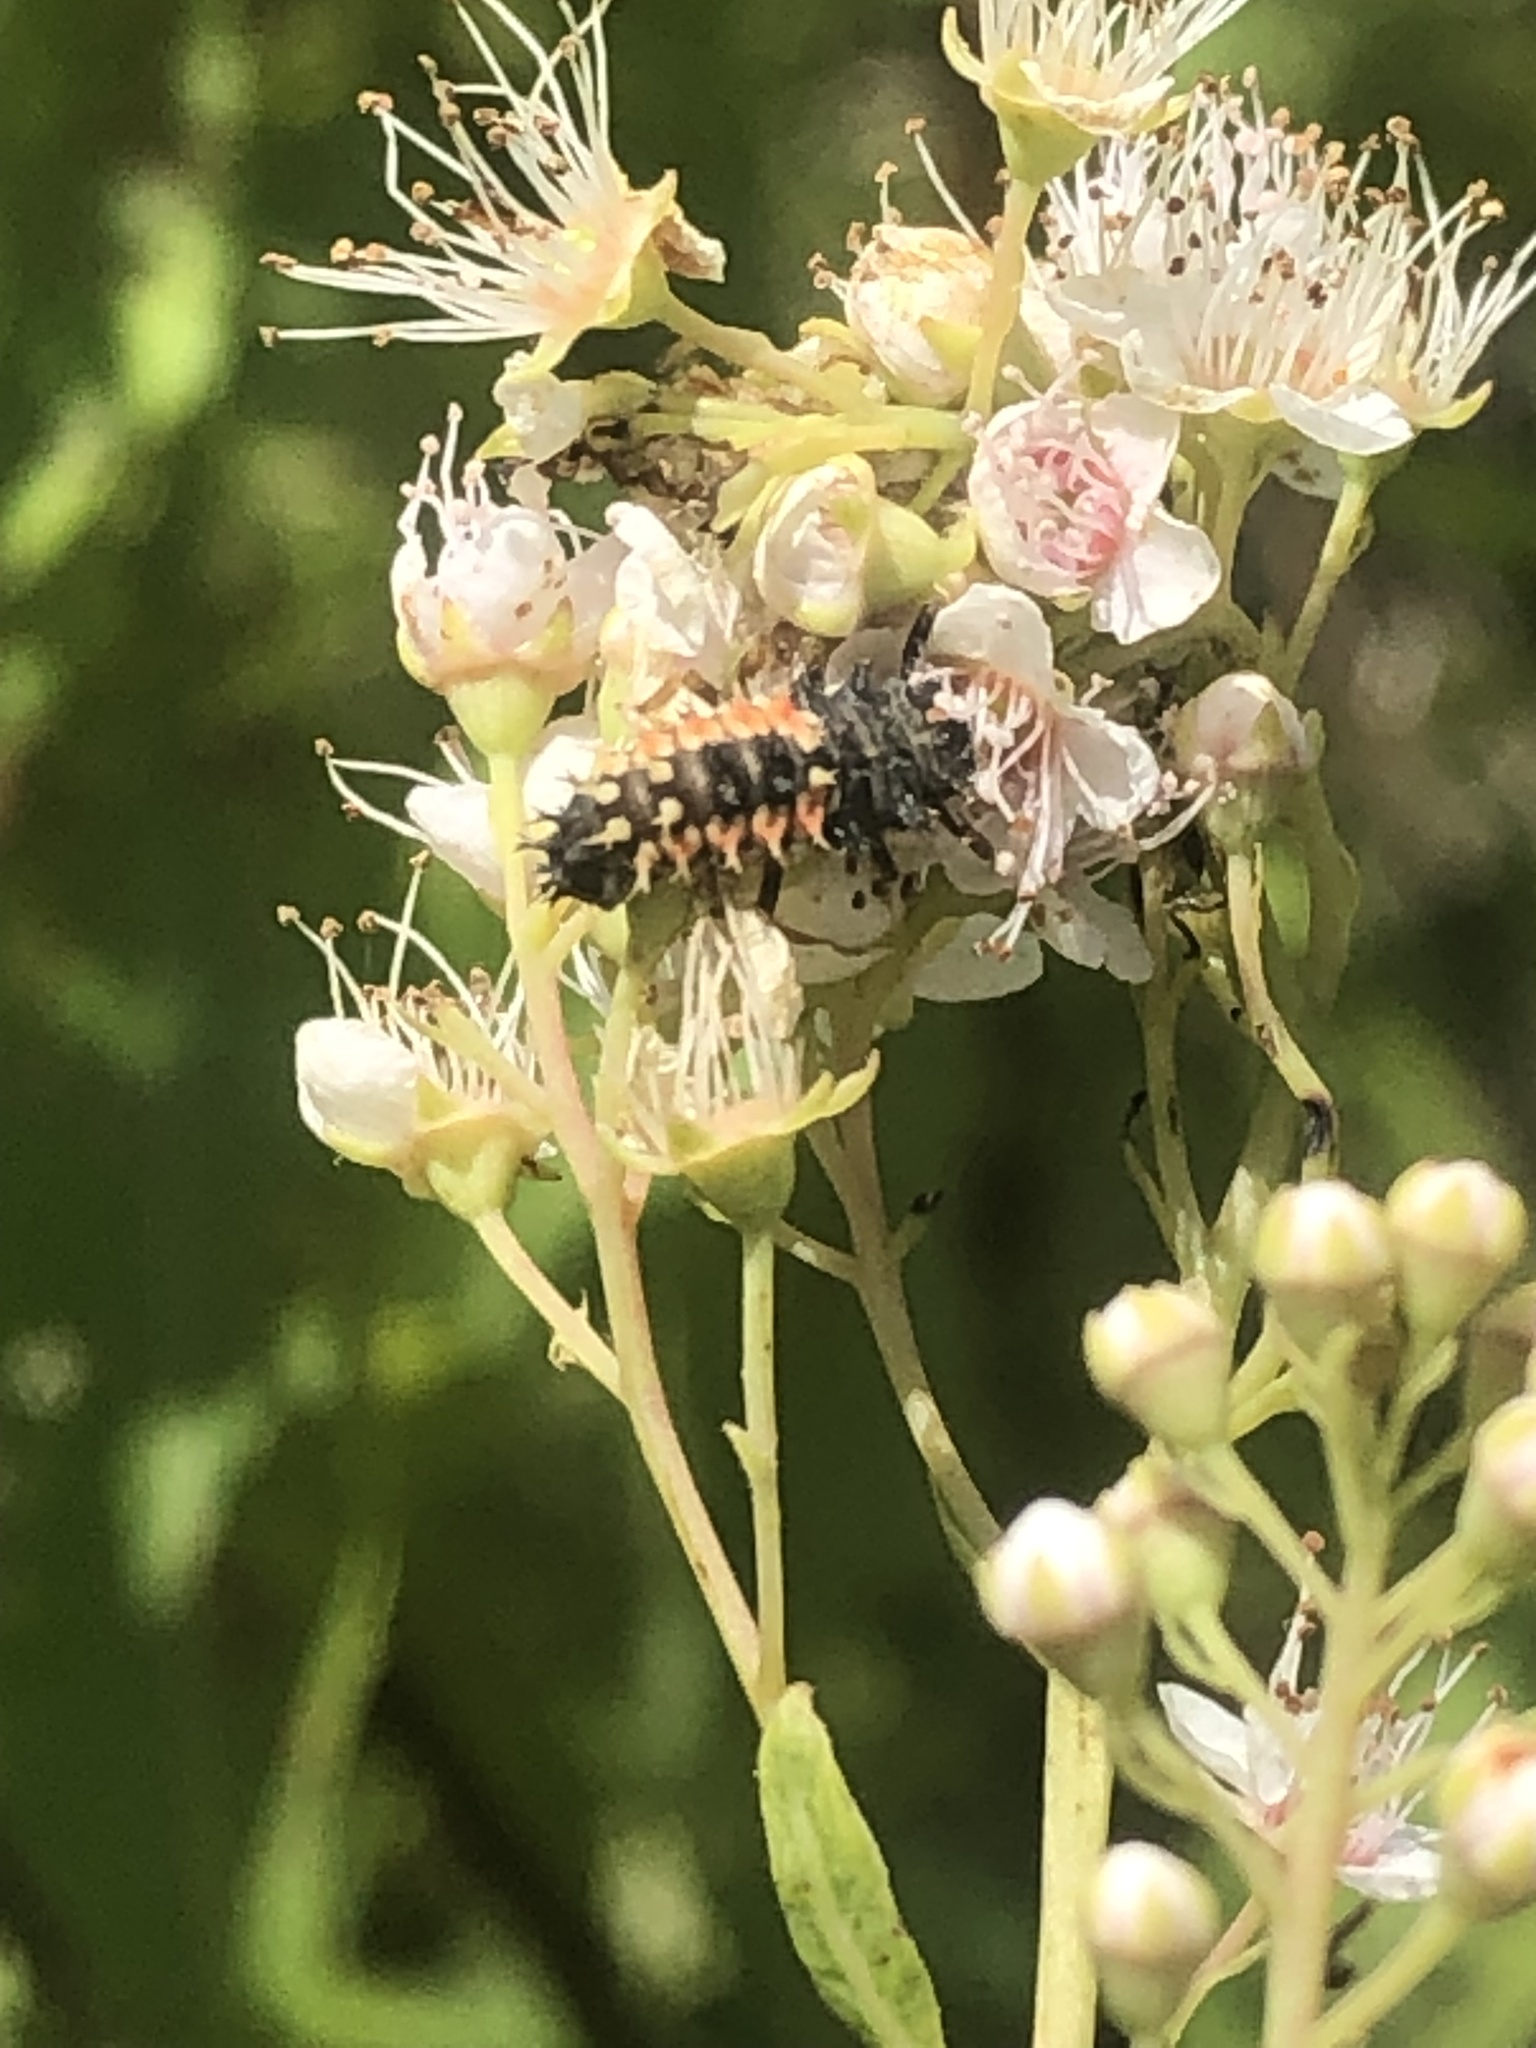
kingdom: Animalia
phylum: Arthropoda
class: Insecta
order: Coleoptera
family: Coccinellidae
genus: Harmonia
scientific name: Harmonia axyridis
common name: Harlequin ladybird
